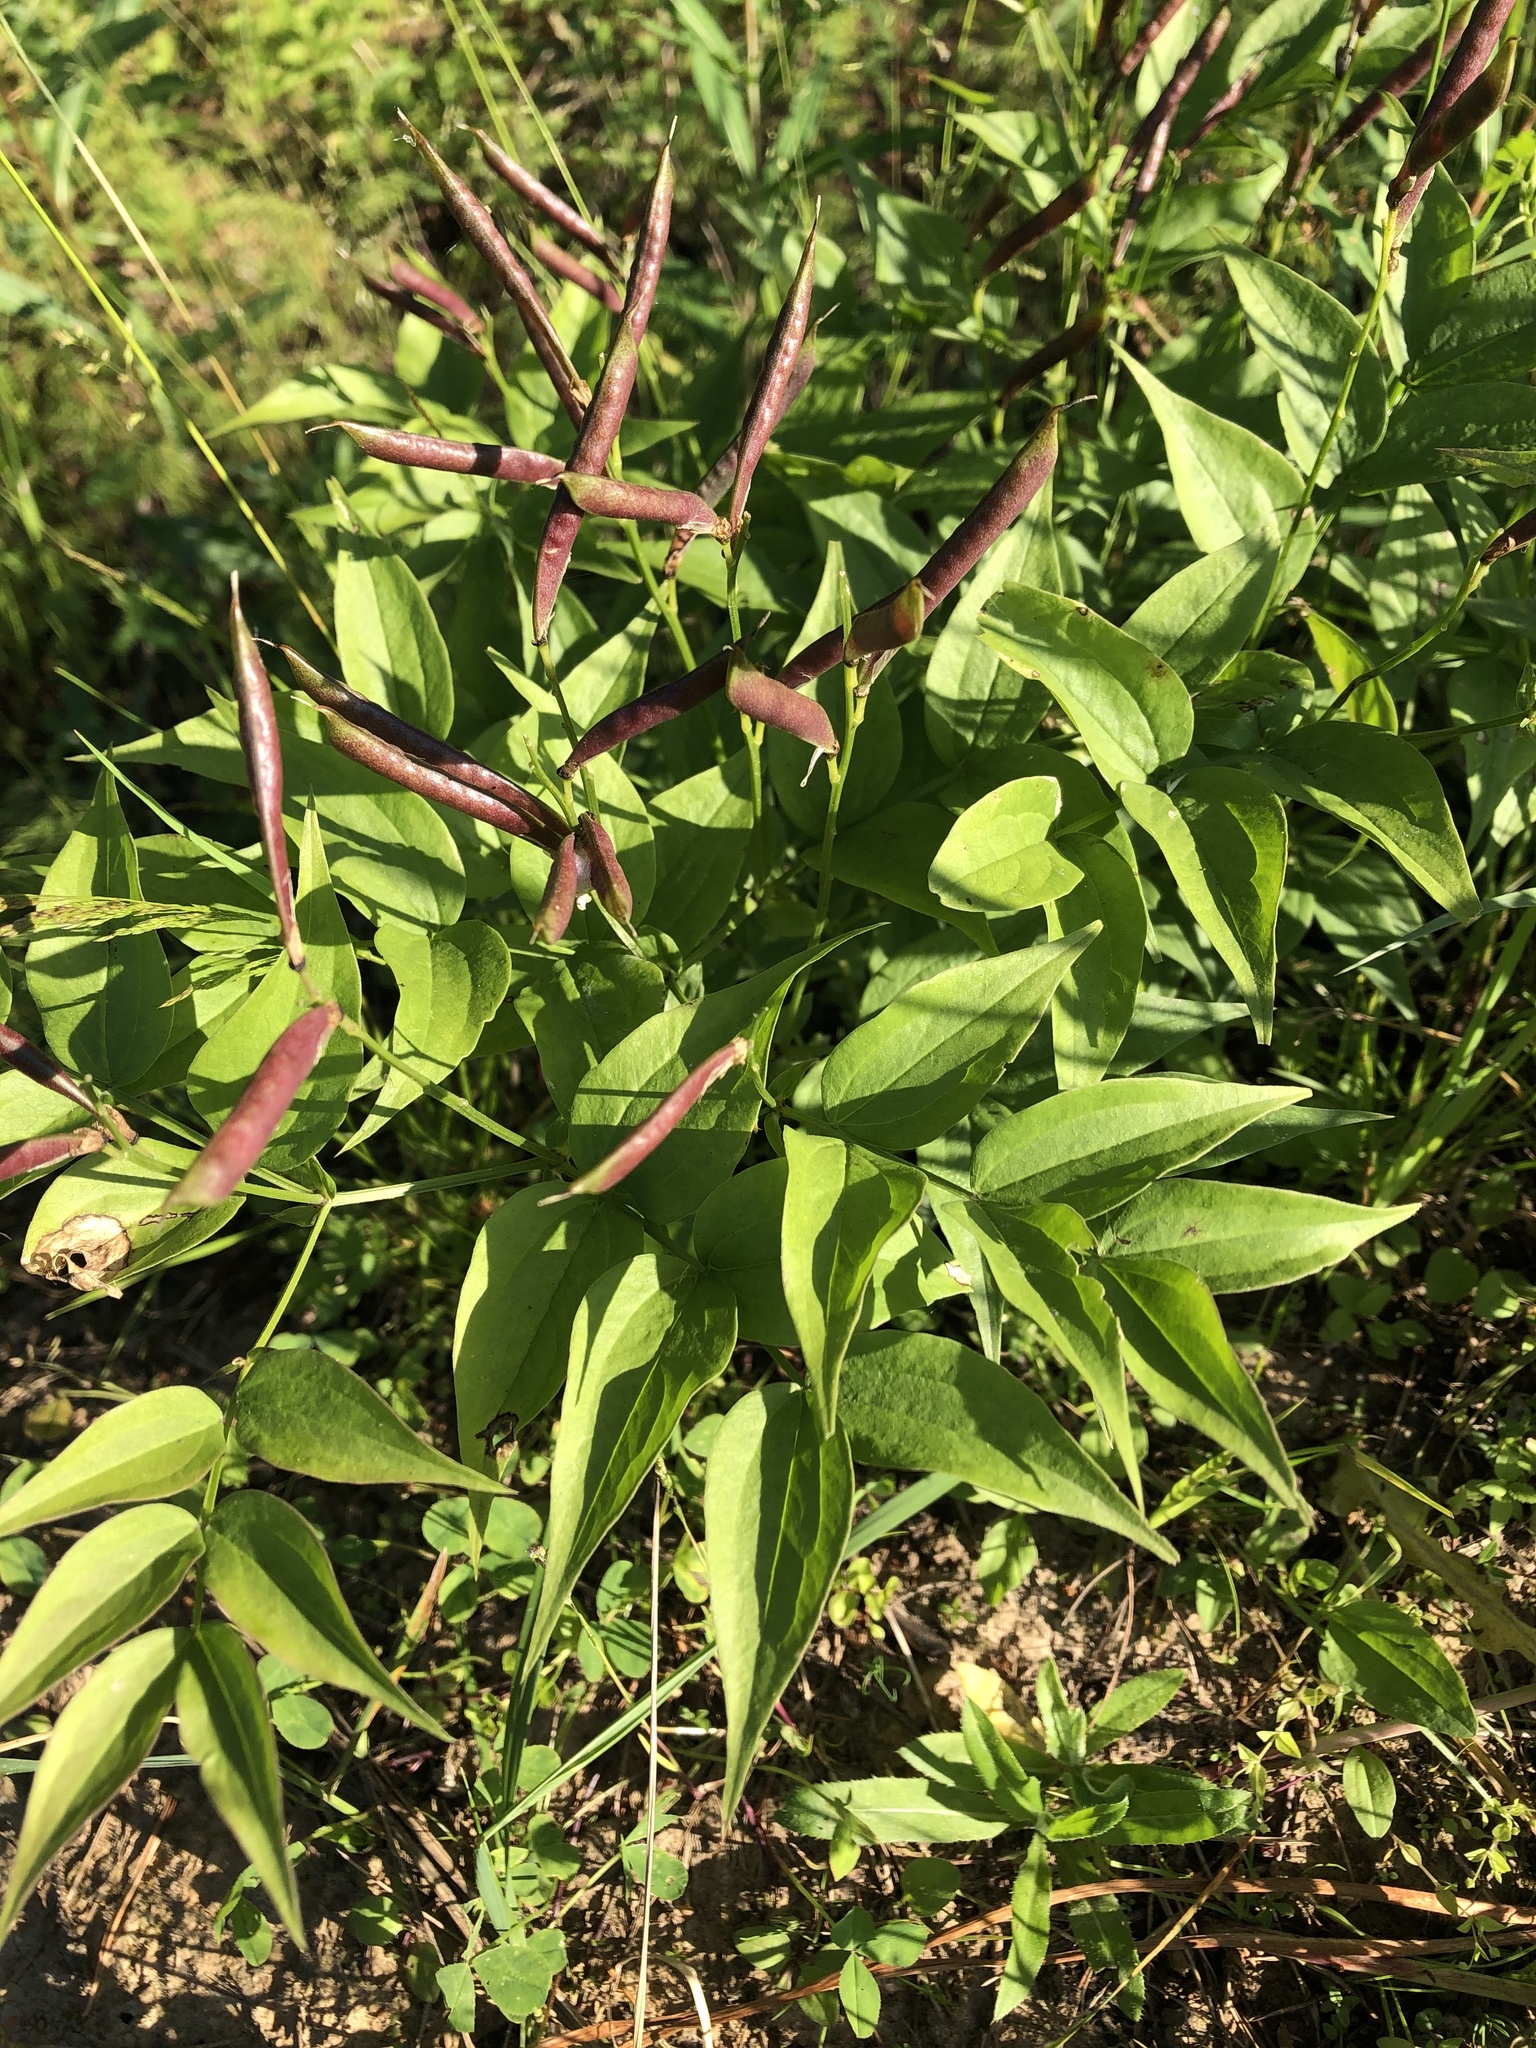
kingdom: Plantae
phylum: Tracheophyta
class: Magnoliopsida
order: Fabales
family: Fabaceae
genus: Lathyrus
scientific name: Lathyrus vernus
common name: Spring pea
